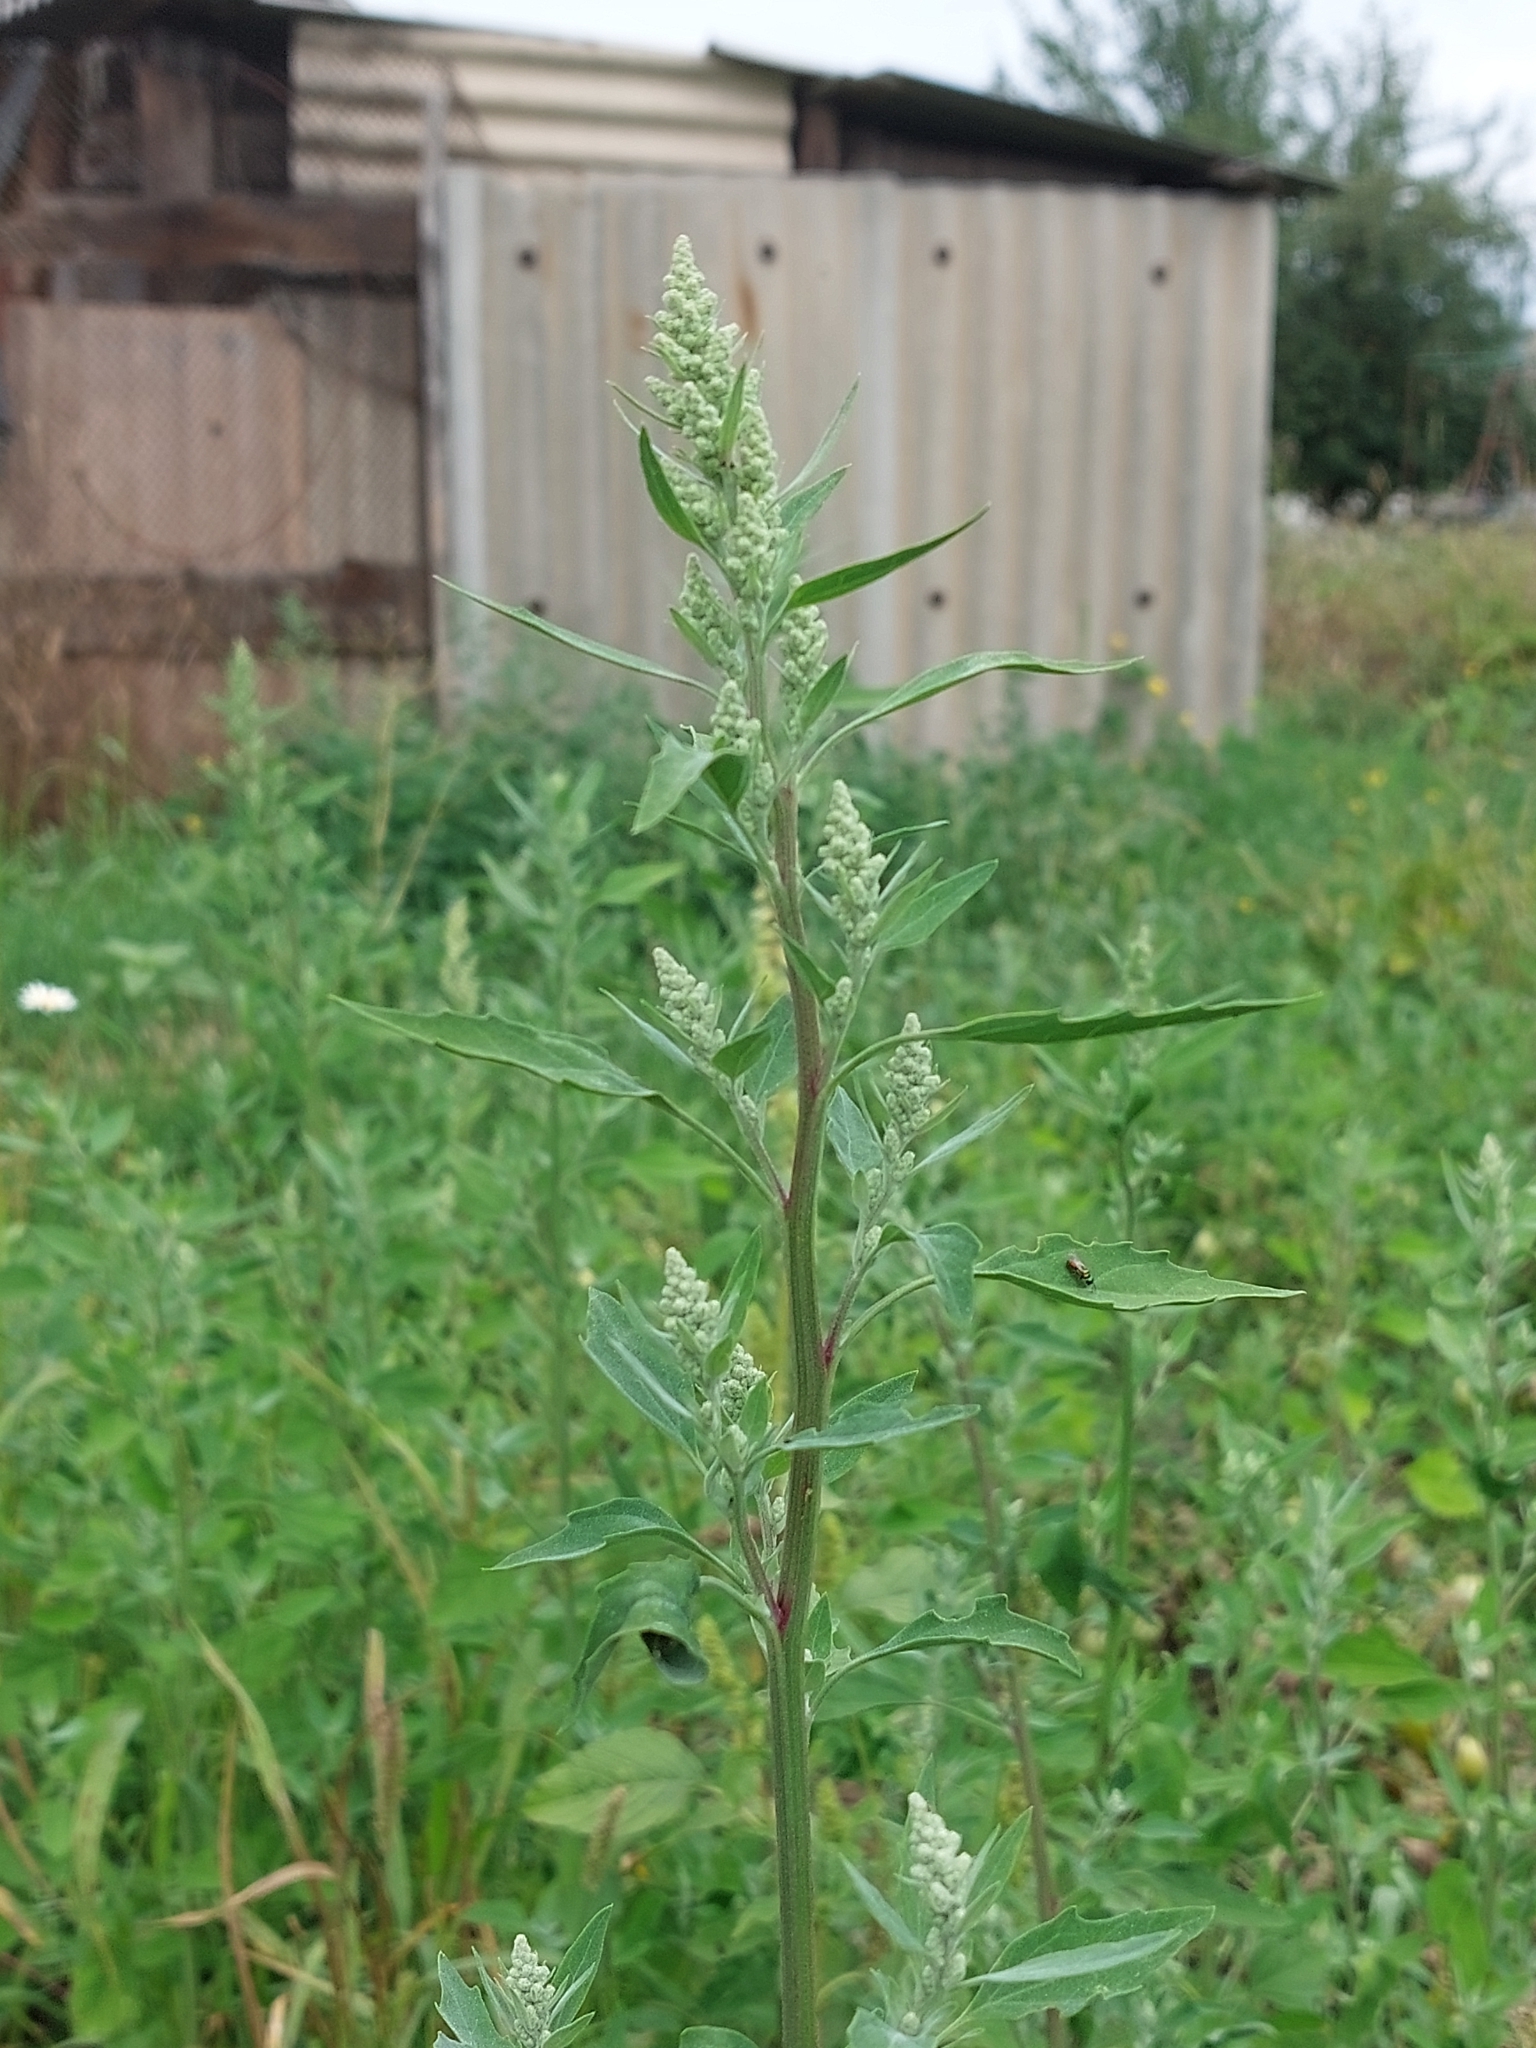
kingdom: Plantae
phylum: Tracheophyta
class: Magnoliopsida
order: Caryophyllales
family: Amaranthaceae
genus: Chenopodium
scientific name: Chenopodium album
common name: Fat-hen
